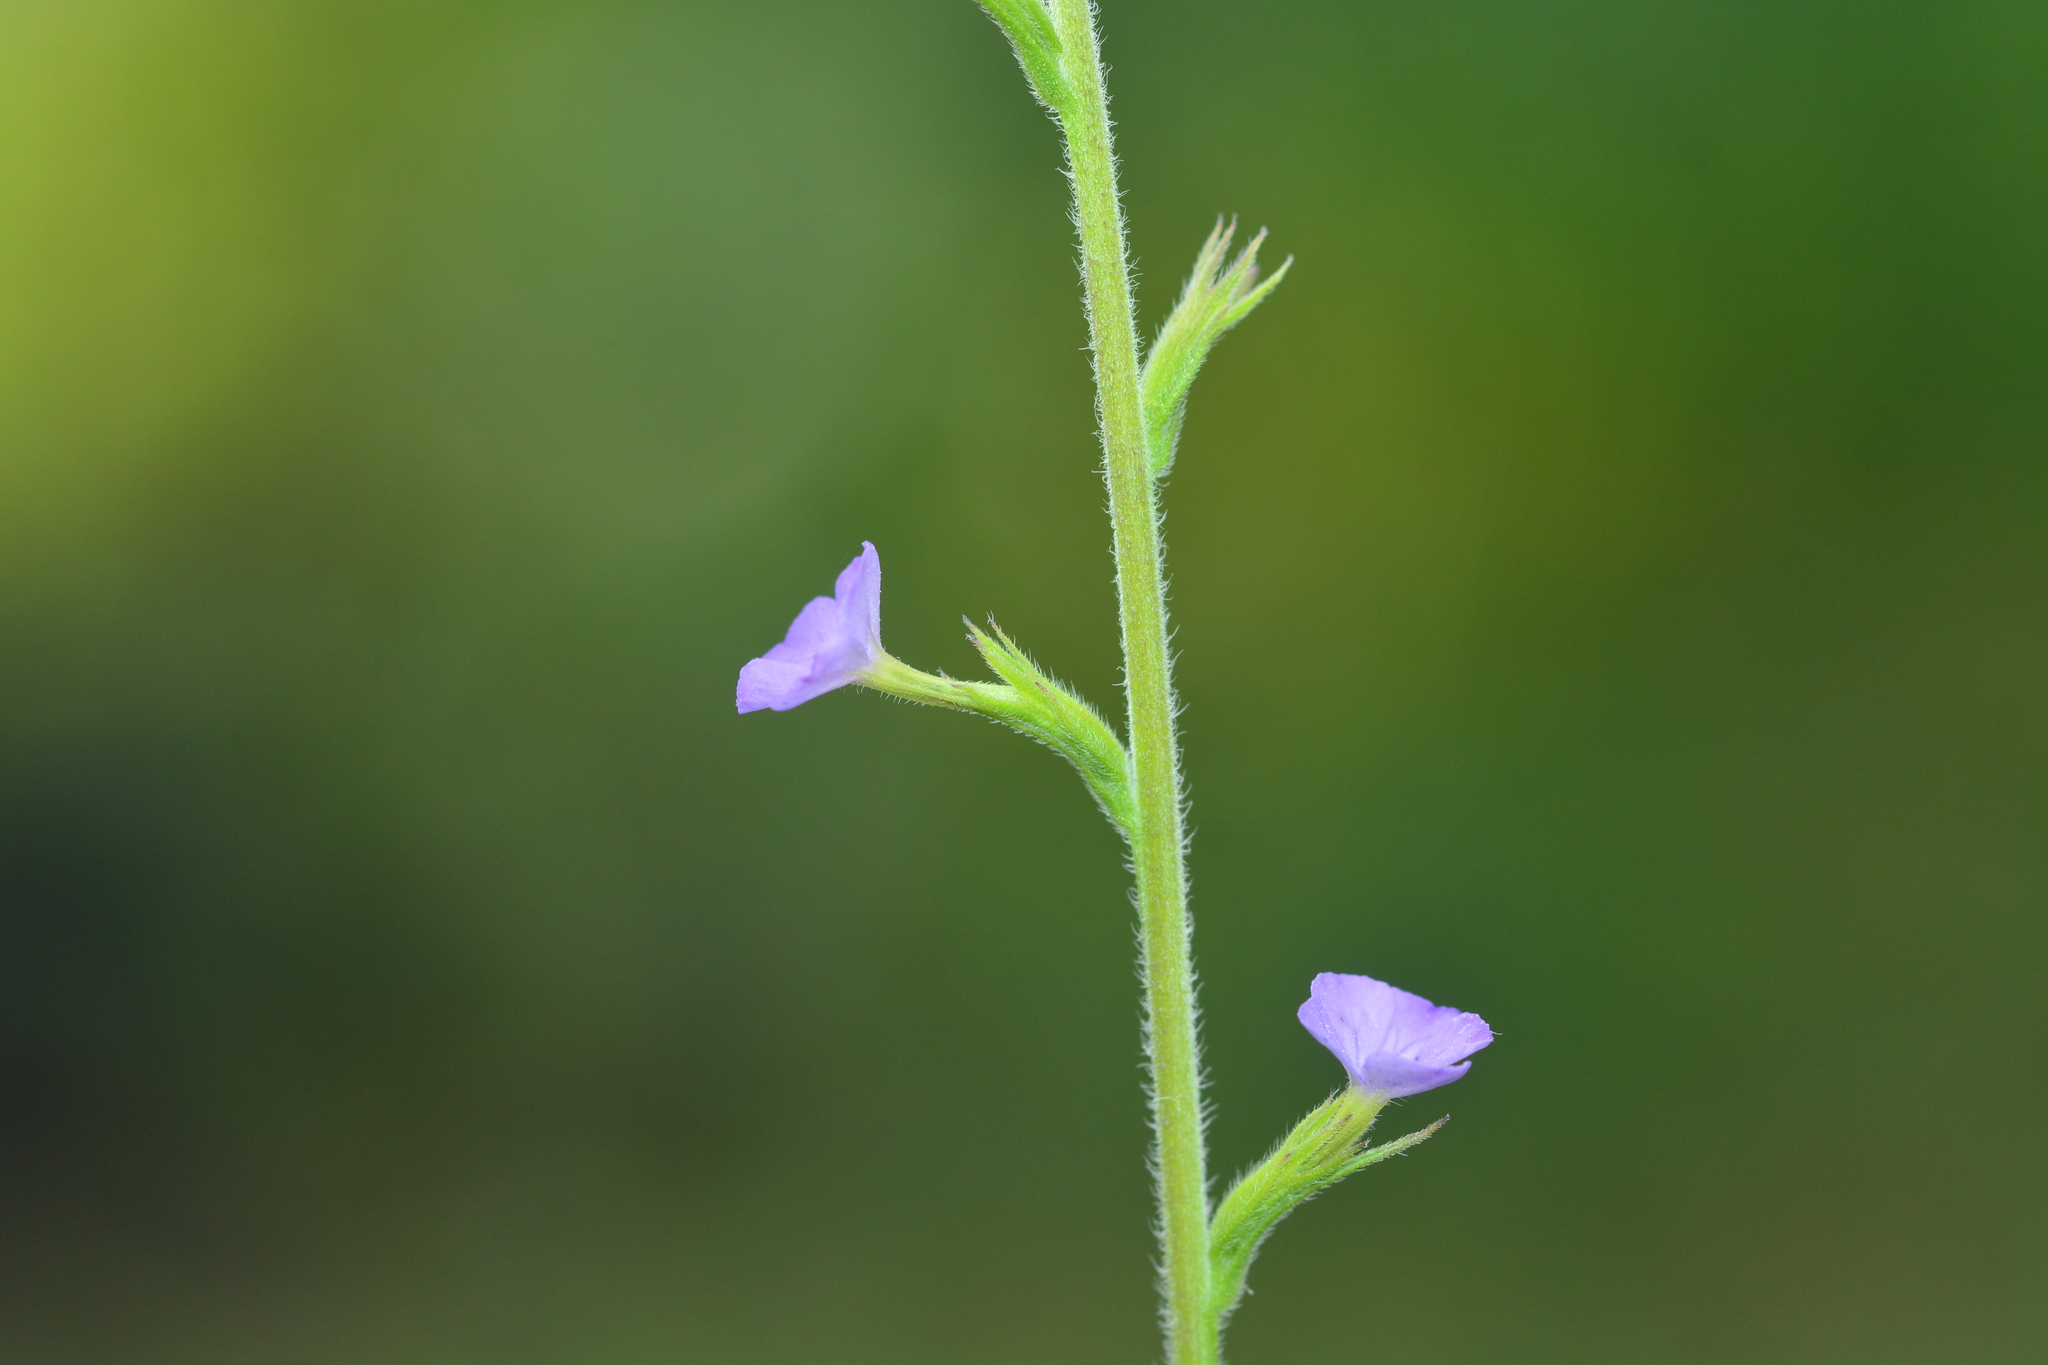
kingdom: Plantae
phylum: Tracheophyta
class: Magnoliopsida
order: Lamiales
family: Orobanchaceae
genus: Buchnera
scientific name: Buchnera hispida
